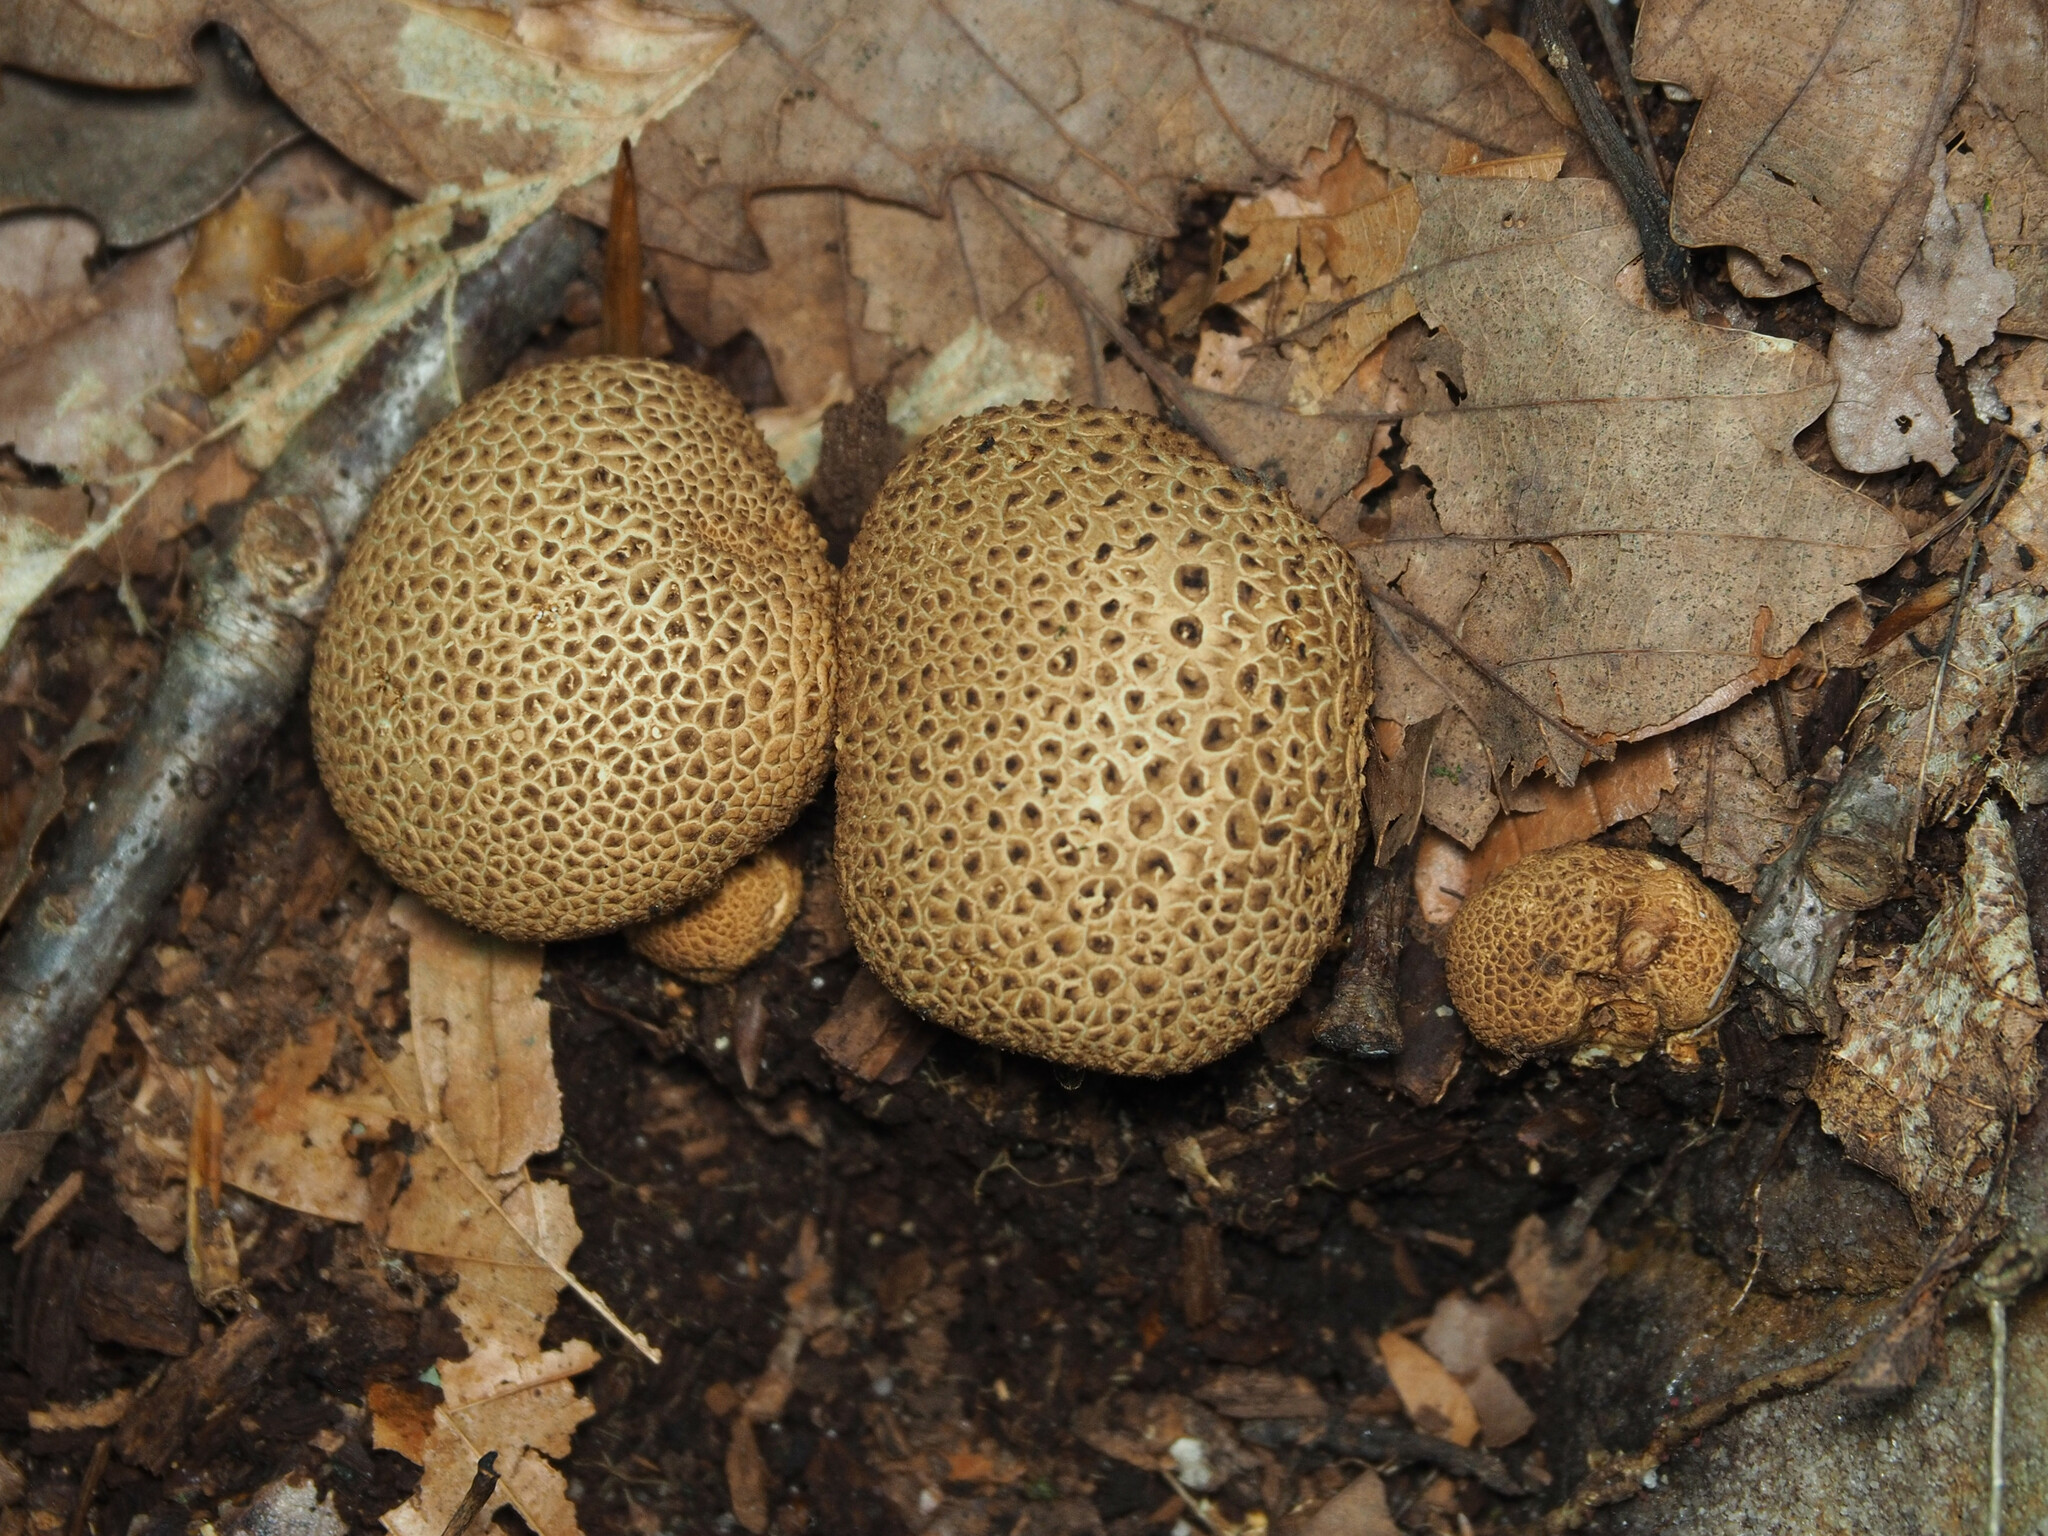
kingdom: Fungi
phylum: Basidiomycota
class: Agaricomycetes
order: Boletales
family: Sclerodermataceae
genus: Scleroderma
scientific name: Scleroderma citrinum
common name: Common earthball
